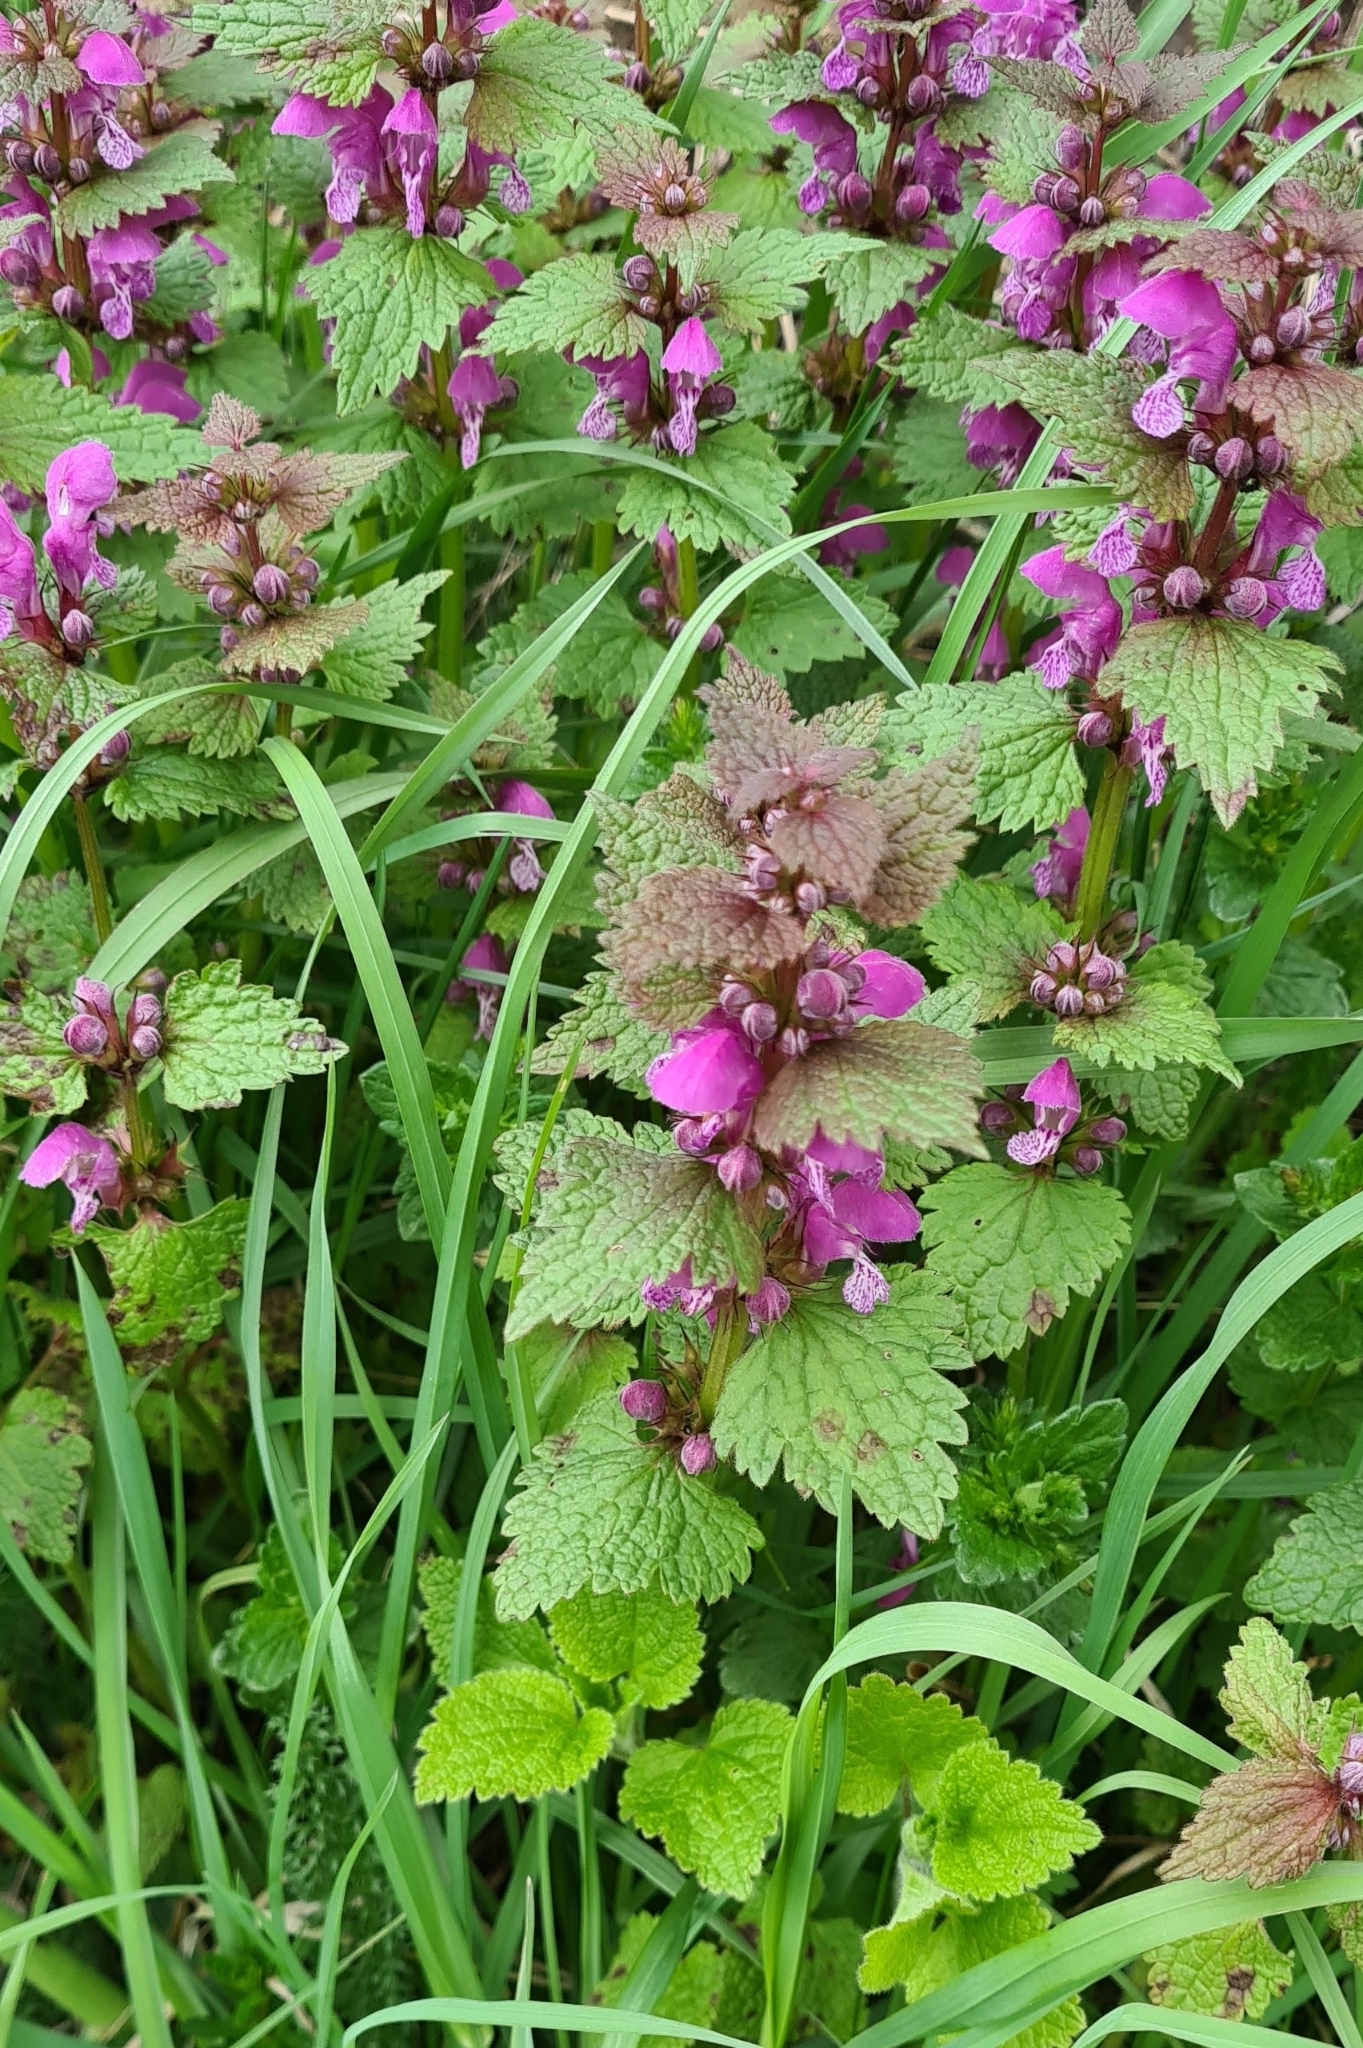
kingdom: Plantae
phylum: Tracheophyta
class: Magnoliopsida
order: Lamiales
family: Lamiaceae
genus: Lamium
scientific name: Lamium maculatum
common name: Spotted dead-nettle
